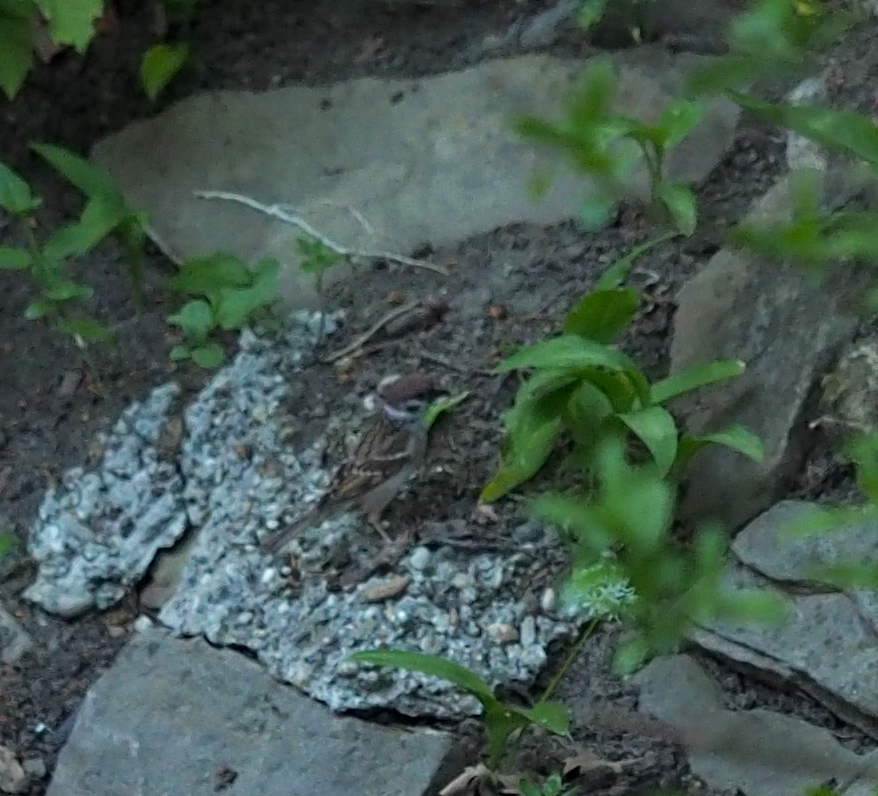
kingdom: Animalia
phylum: Chordata
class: Aves
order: Passeriformes
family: Passeridae
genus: Passer
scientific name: Passer montanus
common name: Eurasian tree sparrow
